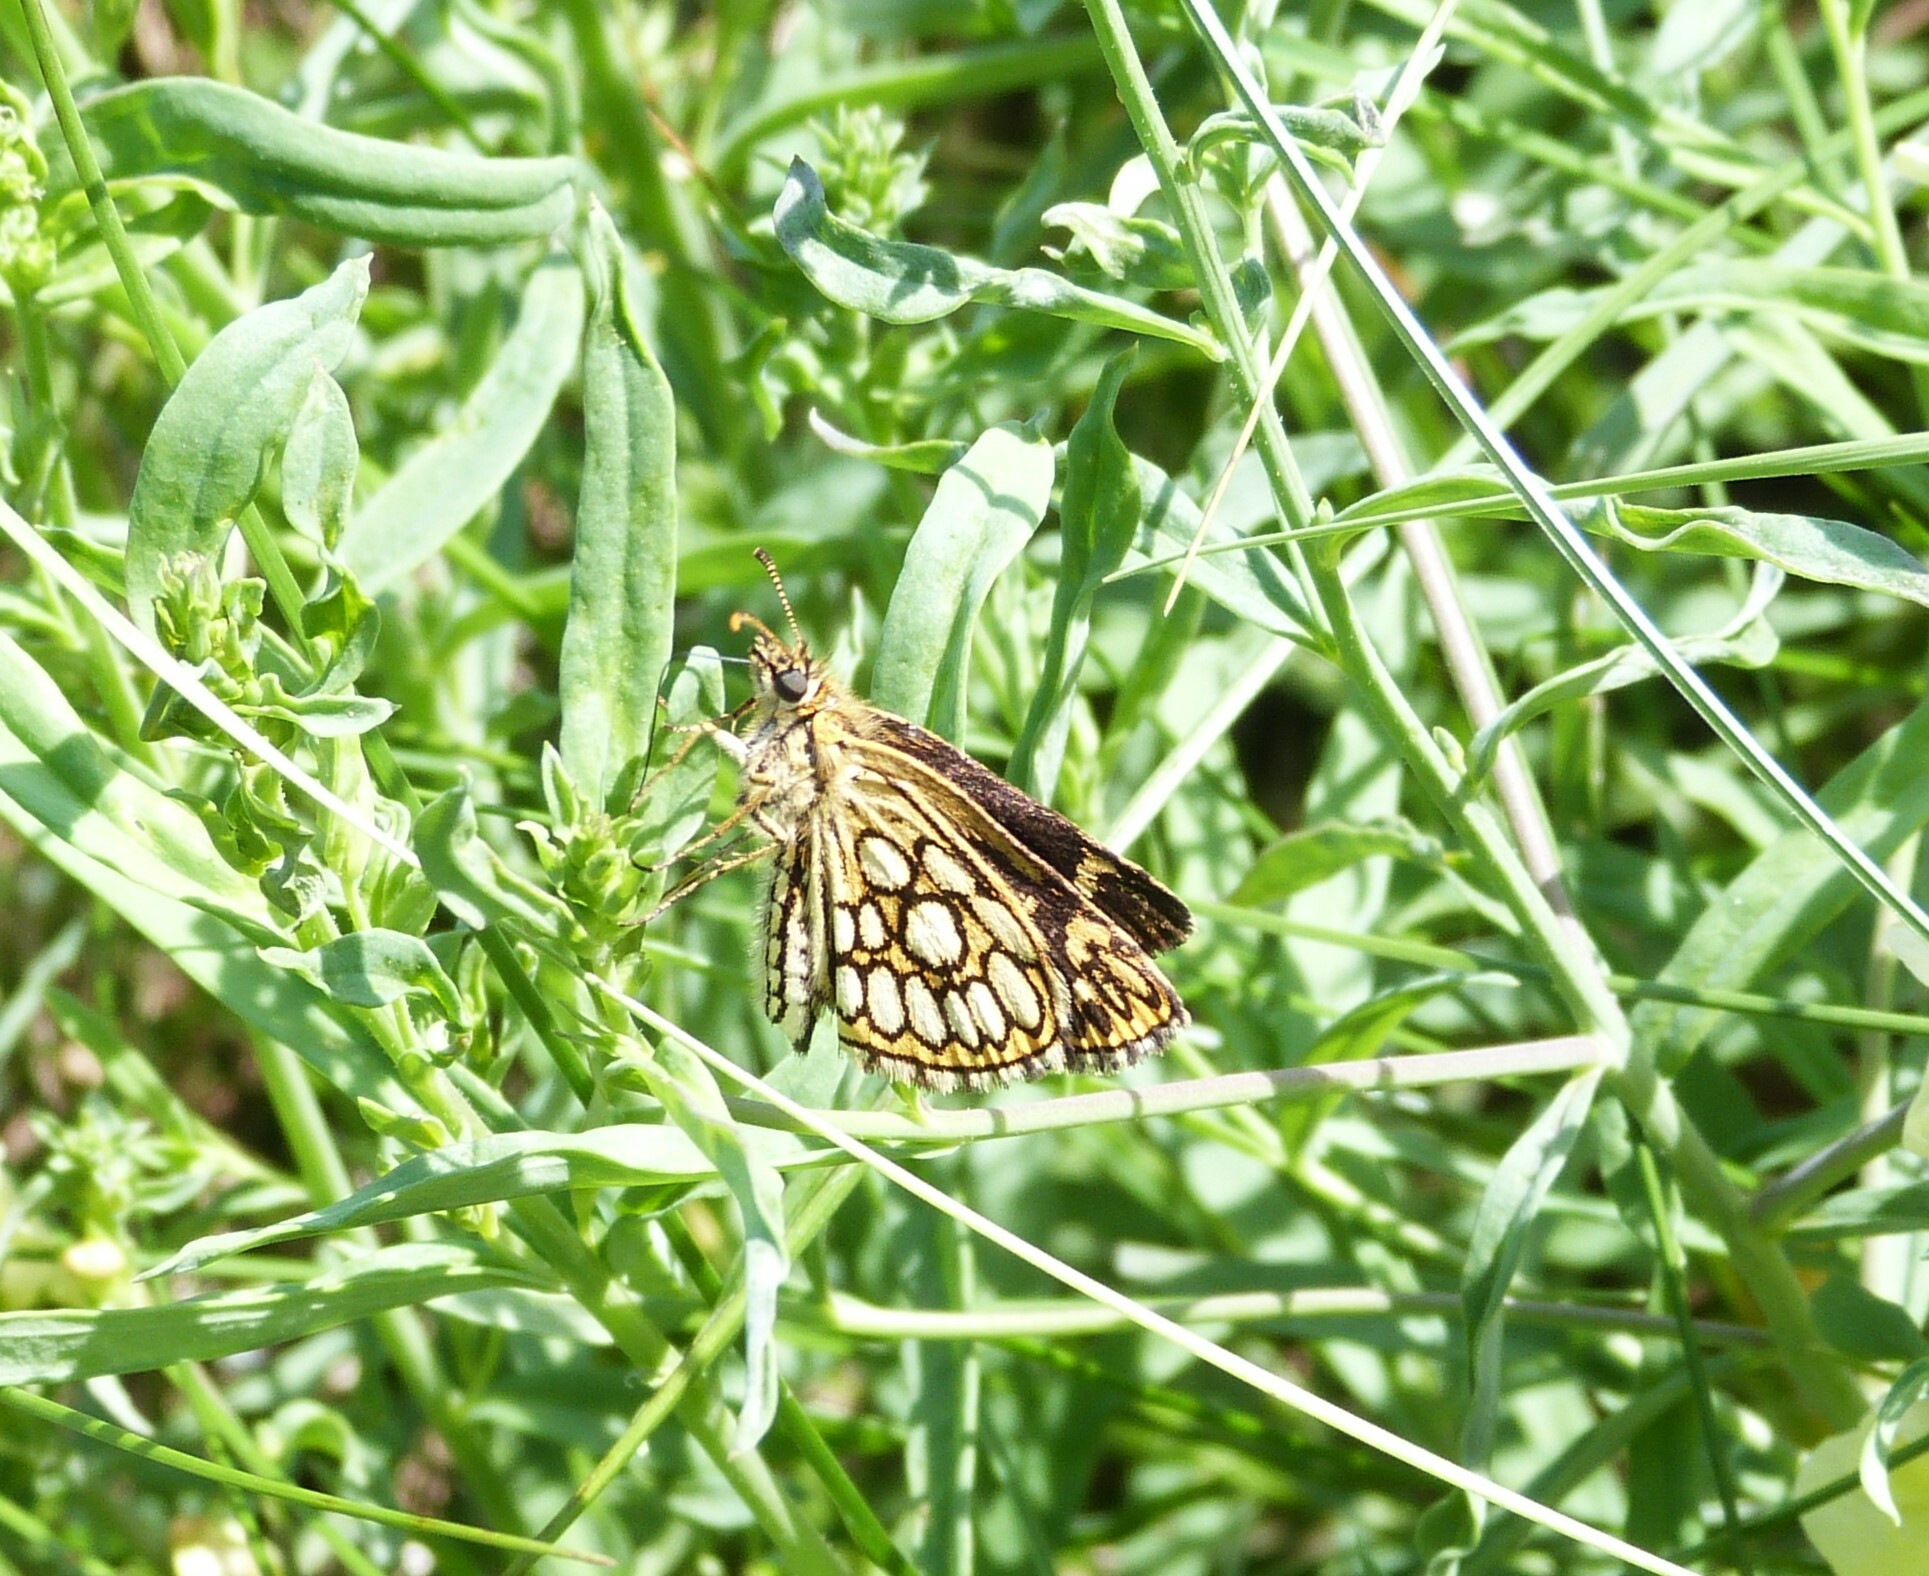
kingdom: Animalia
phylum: Arthropoda
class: Insecta
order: Lepidoptera
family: Hesperiidae
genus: Heteropterus
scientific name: Heteropterus morpheus
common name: Large chequered skipper
